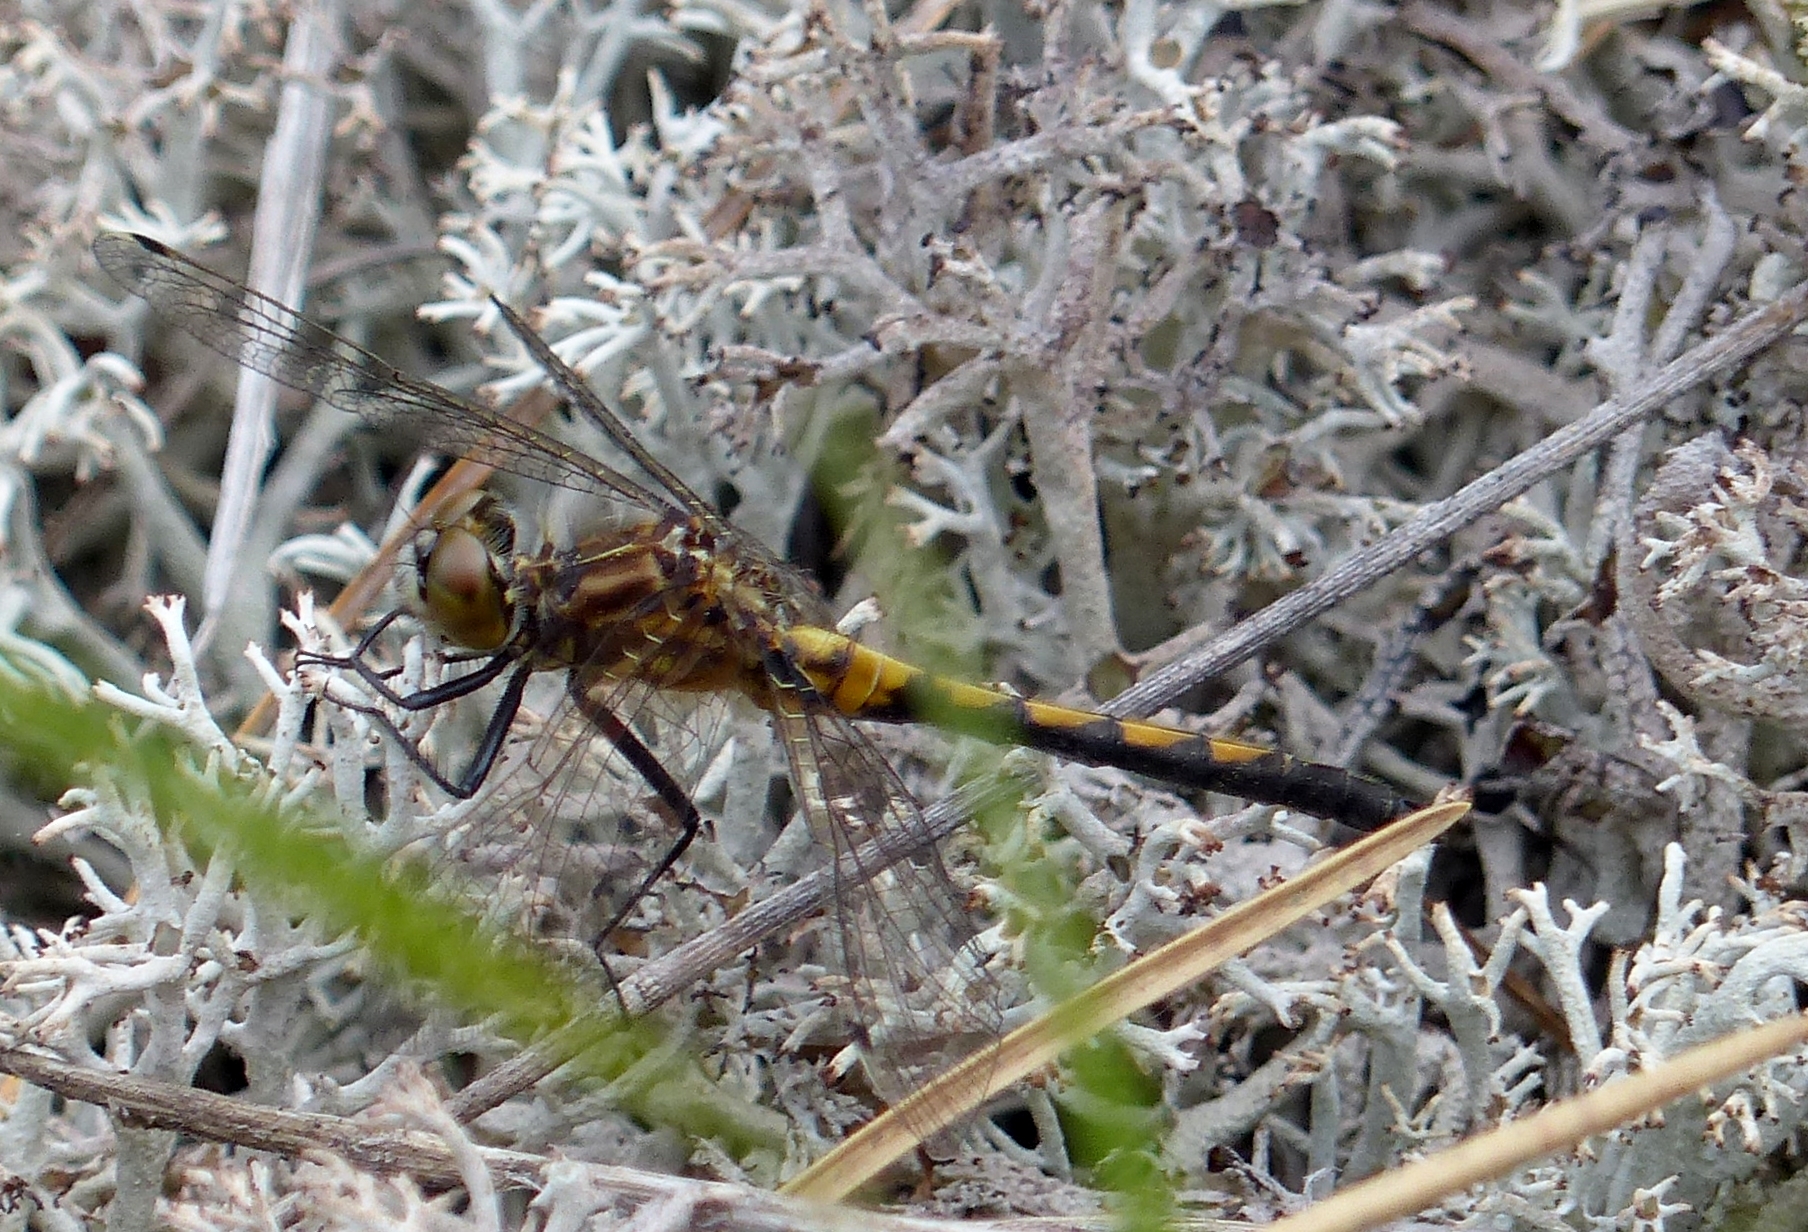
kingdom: Animalia
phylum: Arthropoda
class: Insecta
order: Odonata
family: Libellulidae
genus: Leucorrhinia
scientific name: Leucorrhinia hudsonica
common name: Hudsonian whiteface
